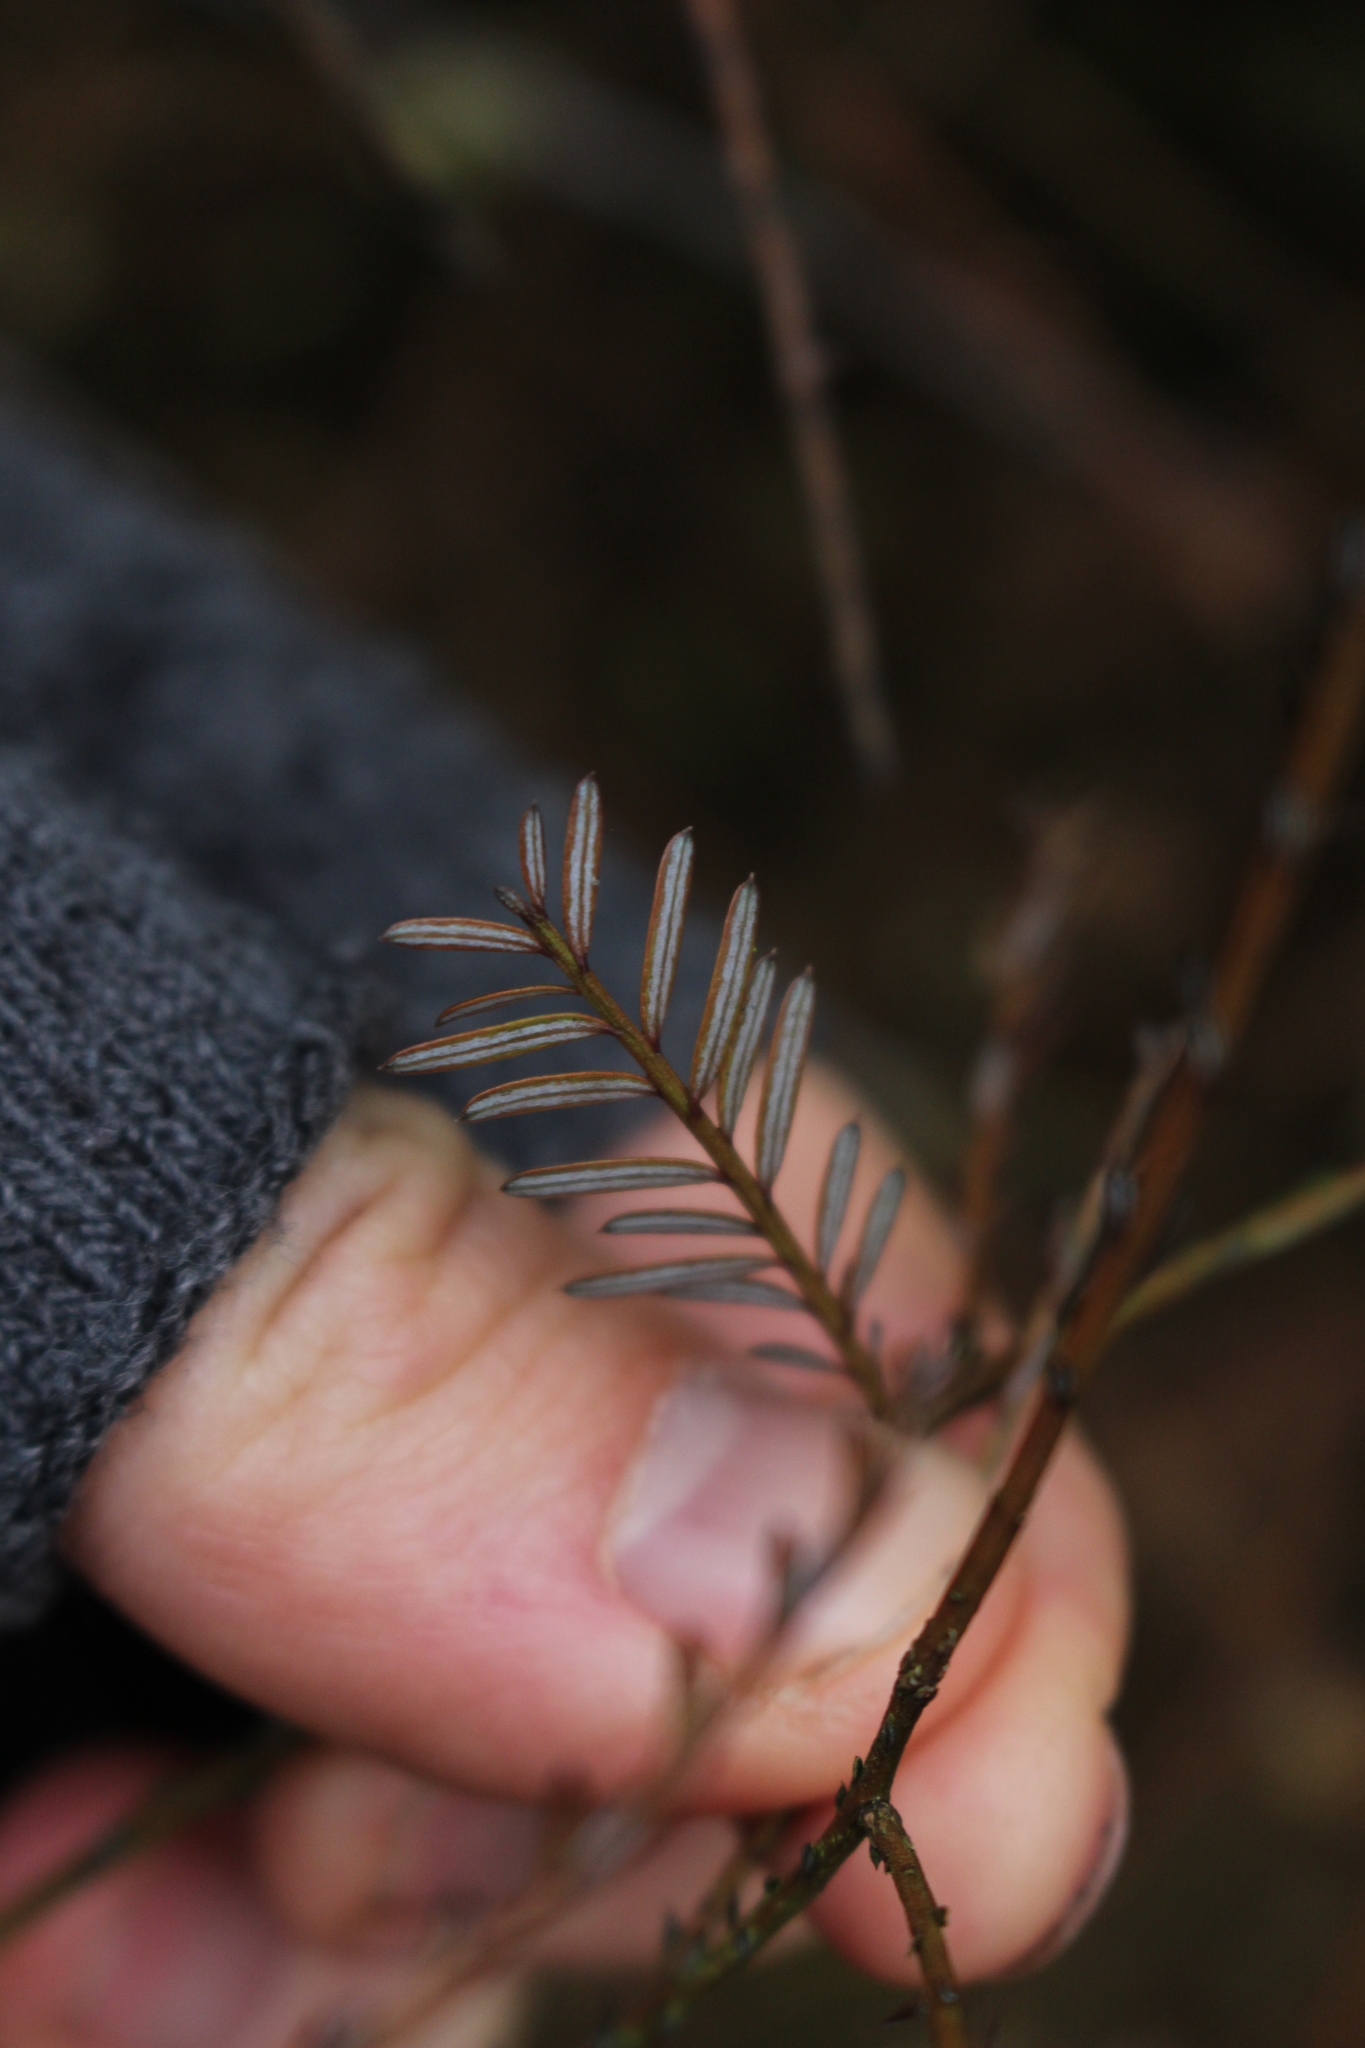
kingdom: Plantae
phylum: Tracheophyta
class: Pinopsida
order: Pinales
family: Podocarpaceae
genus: Prumnopitys
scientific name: Prumnopitys taxifolia
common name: Matai
